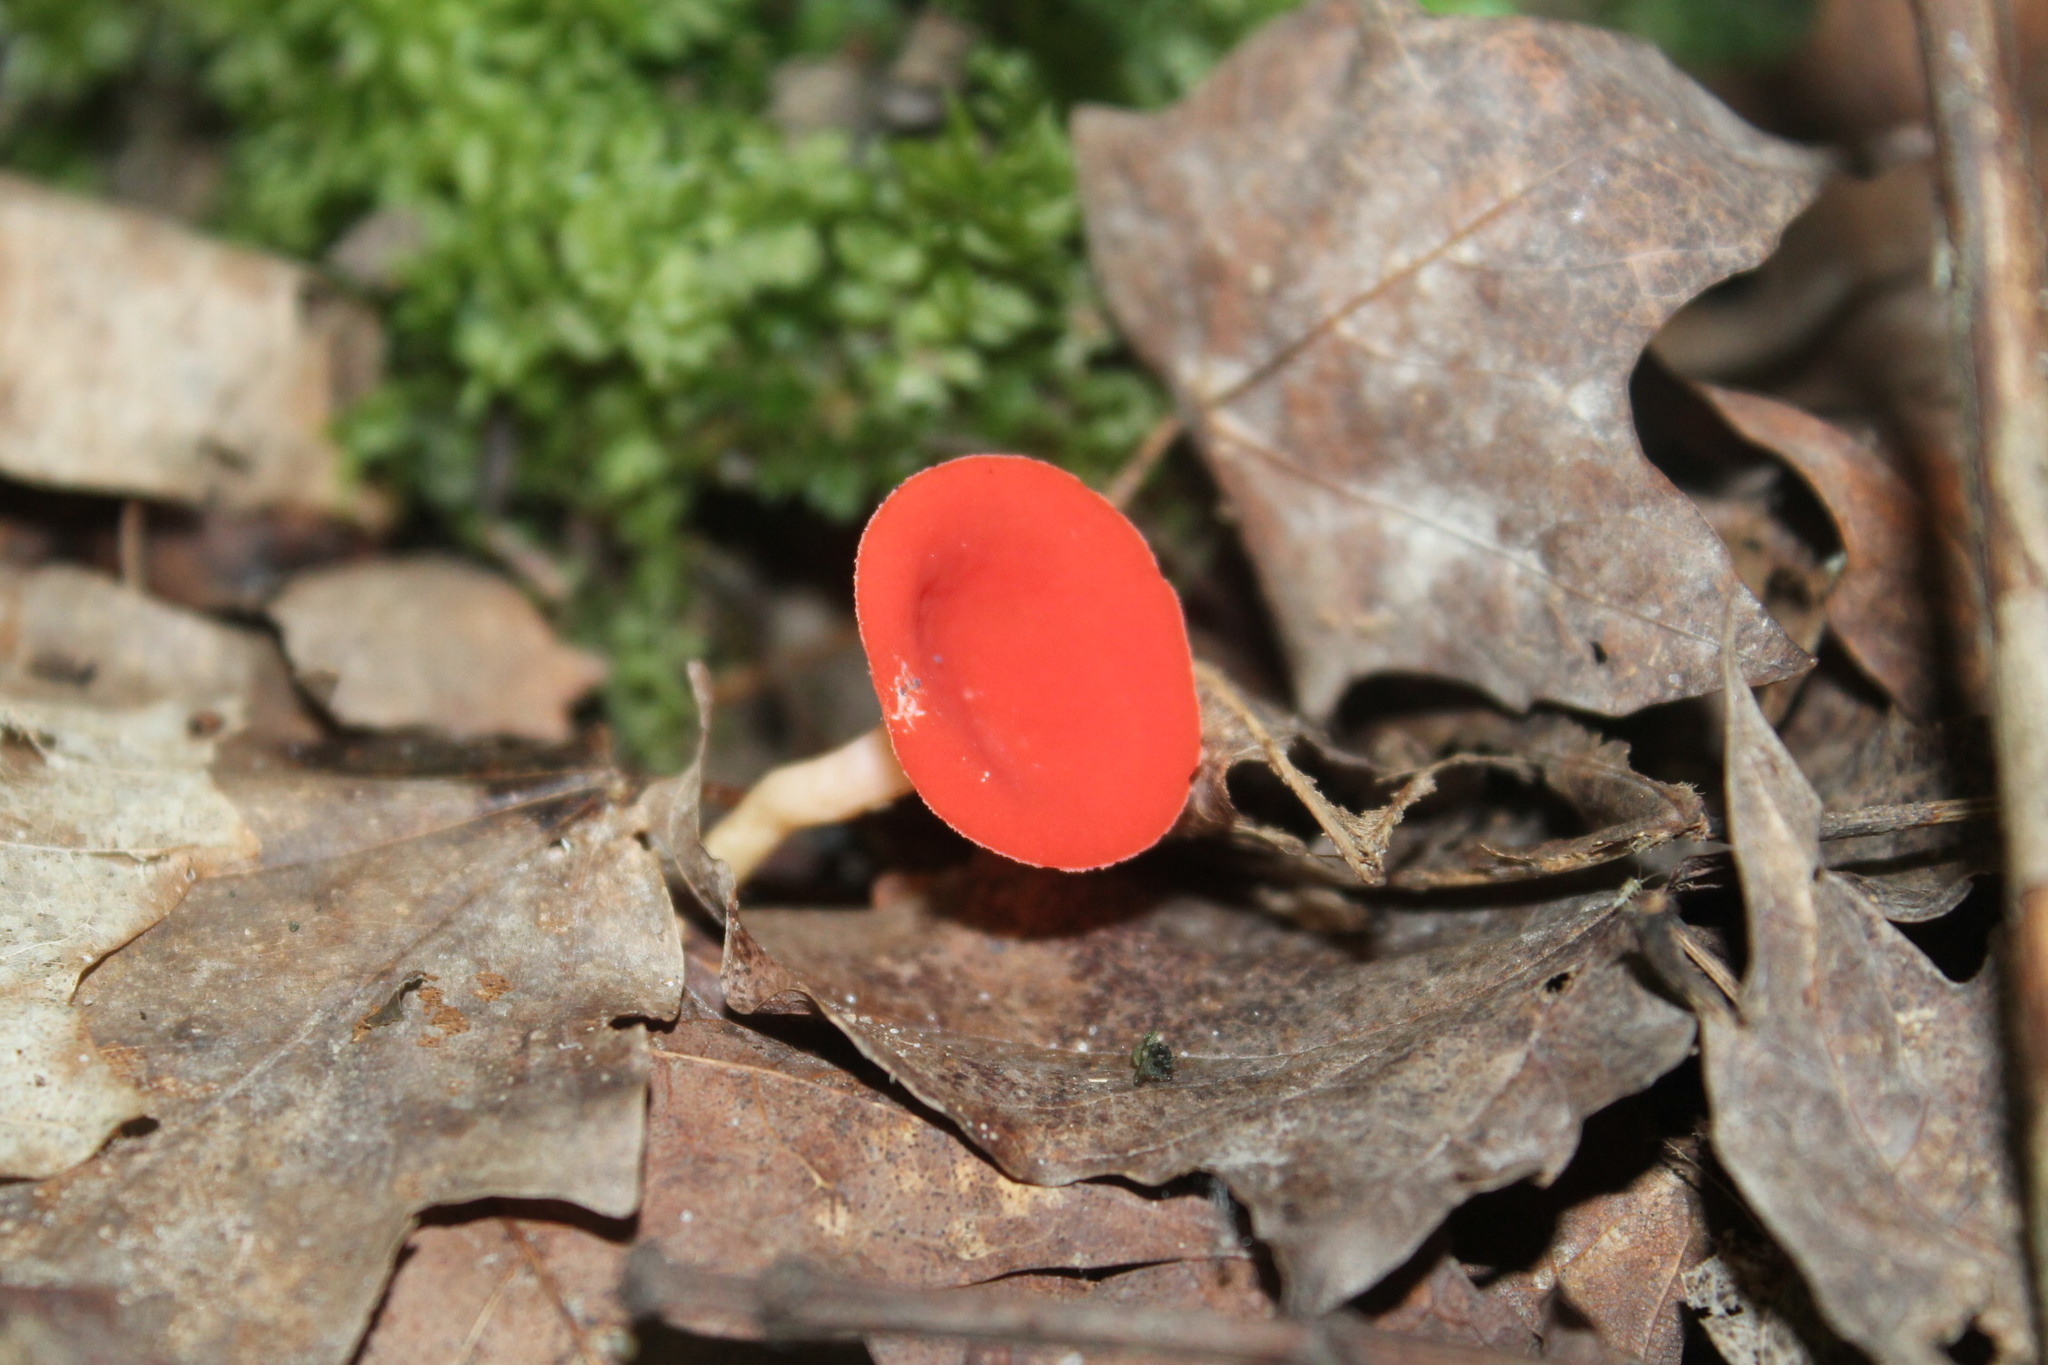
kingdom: Fungi
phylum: Ascomycota
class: Pezizomycetes
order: Pezizales
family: Sarcoscyphaceae
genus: Sarcoscypha
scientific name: Sarcoscypha occidentalis
